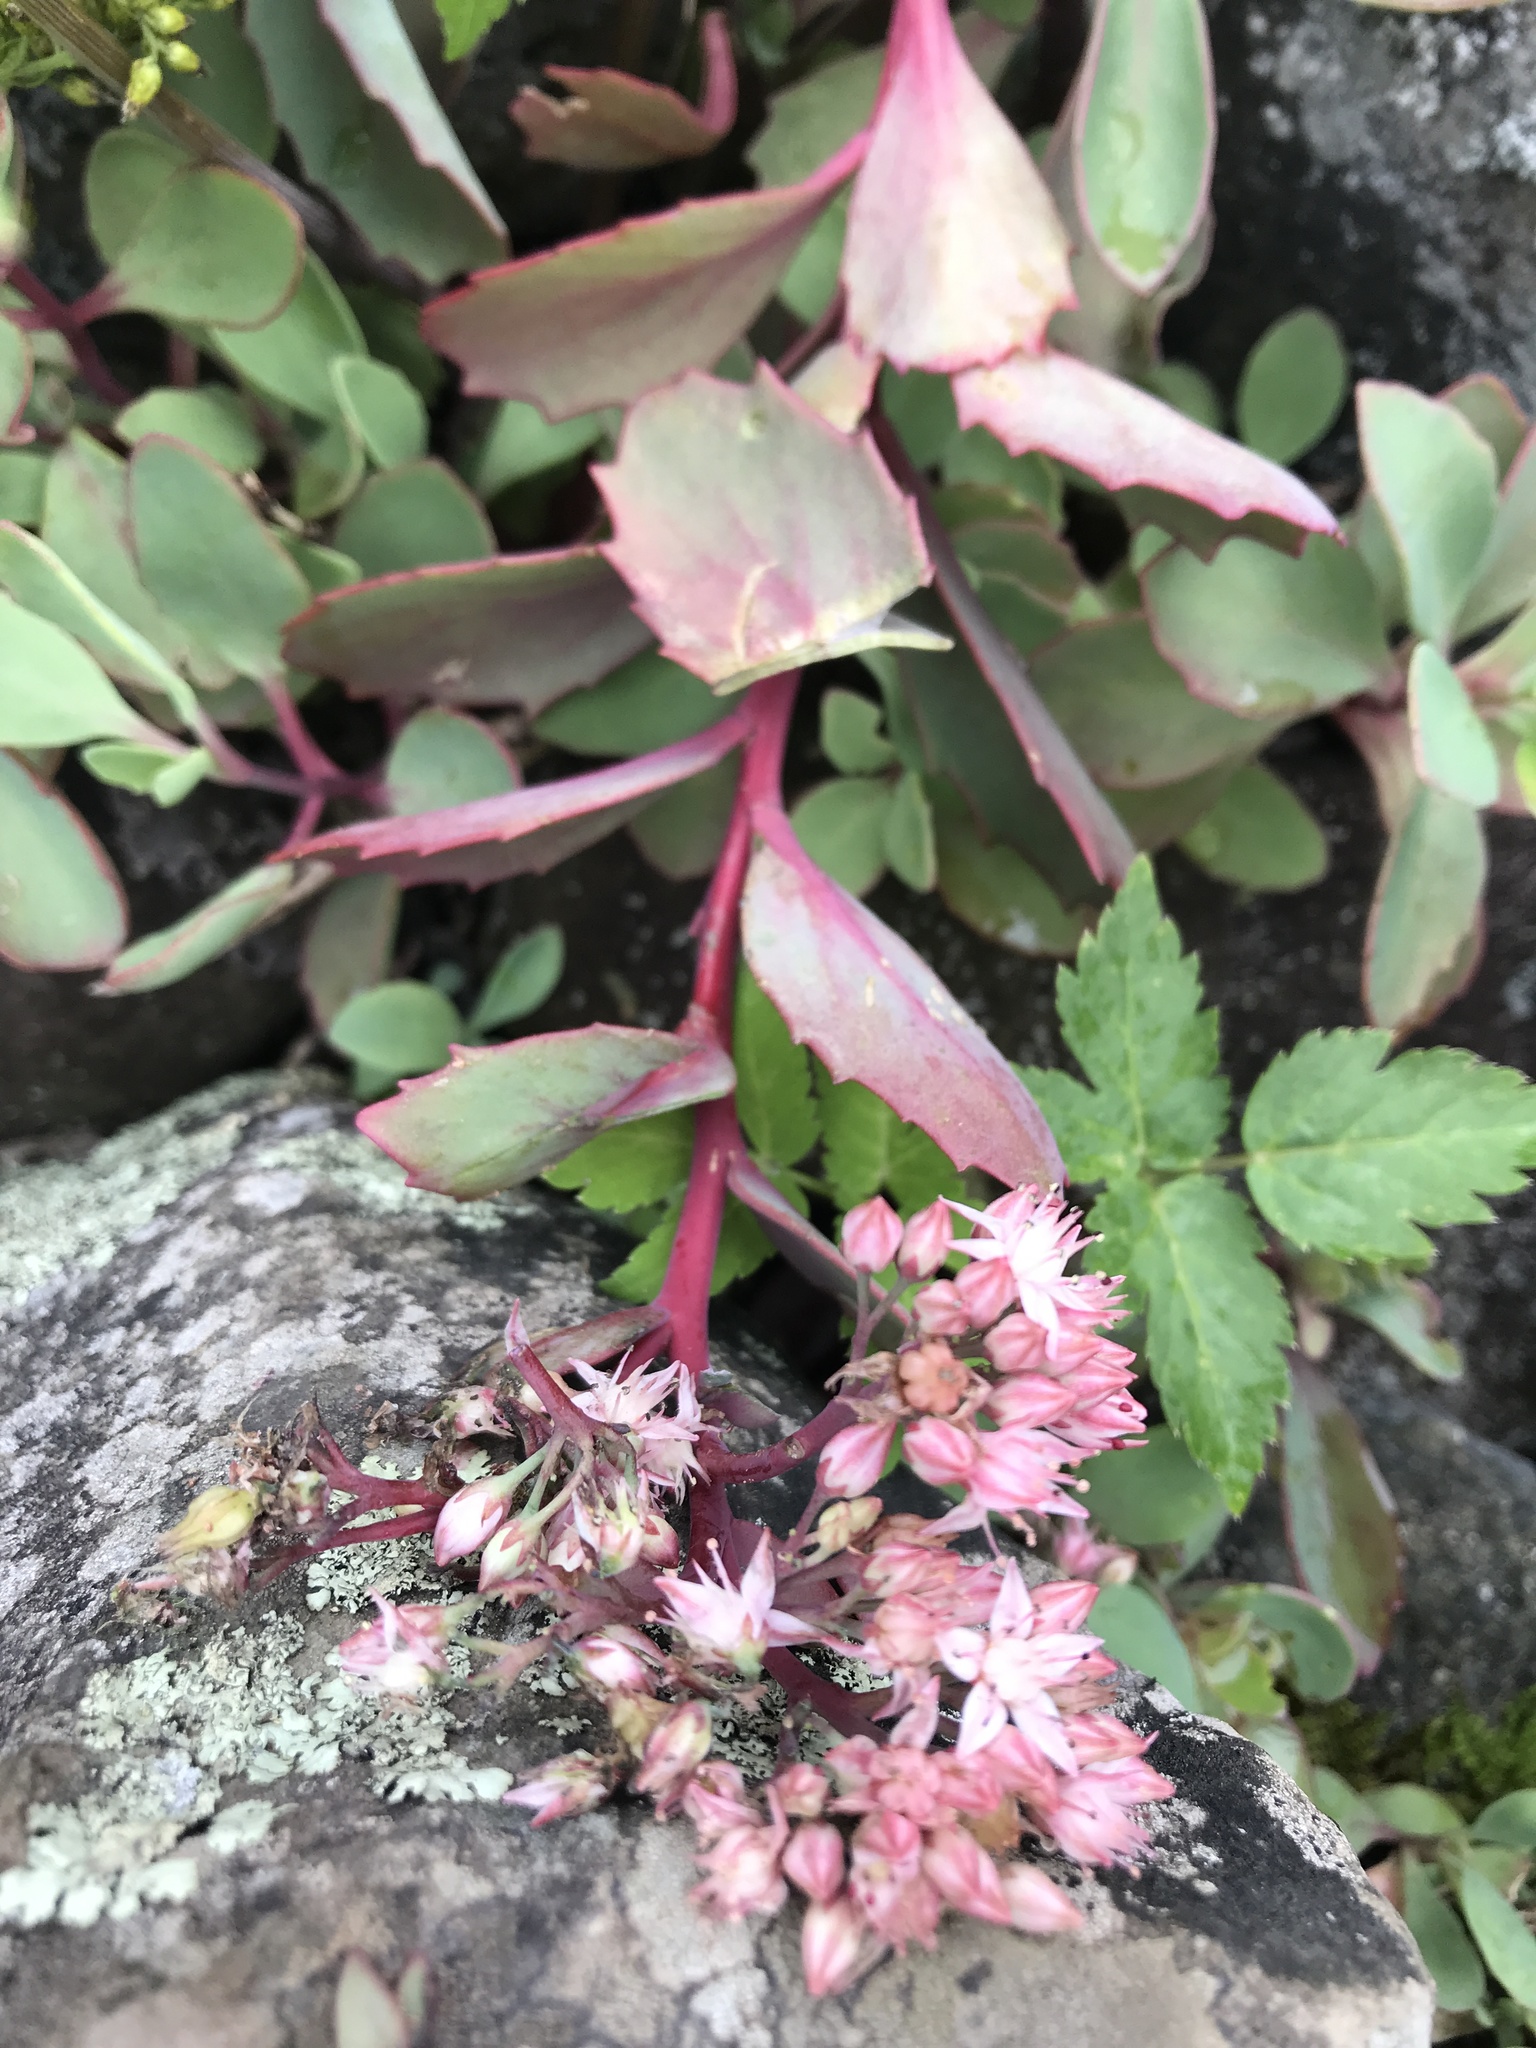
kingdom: Plantae
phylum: Tracheophyta
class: Magnoliopsida
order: Saxifragales
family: Crassulaceae
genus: Hylotelephium
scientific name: Hylotelephium telephioides
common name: Allegheny stonecrop
